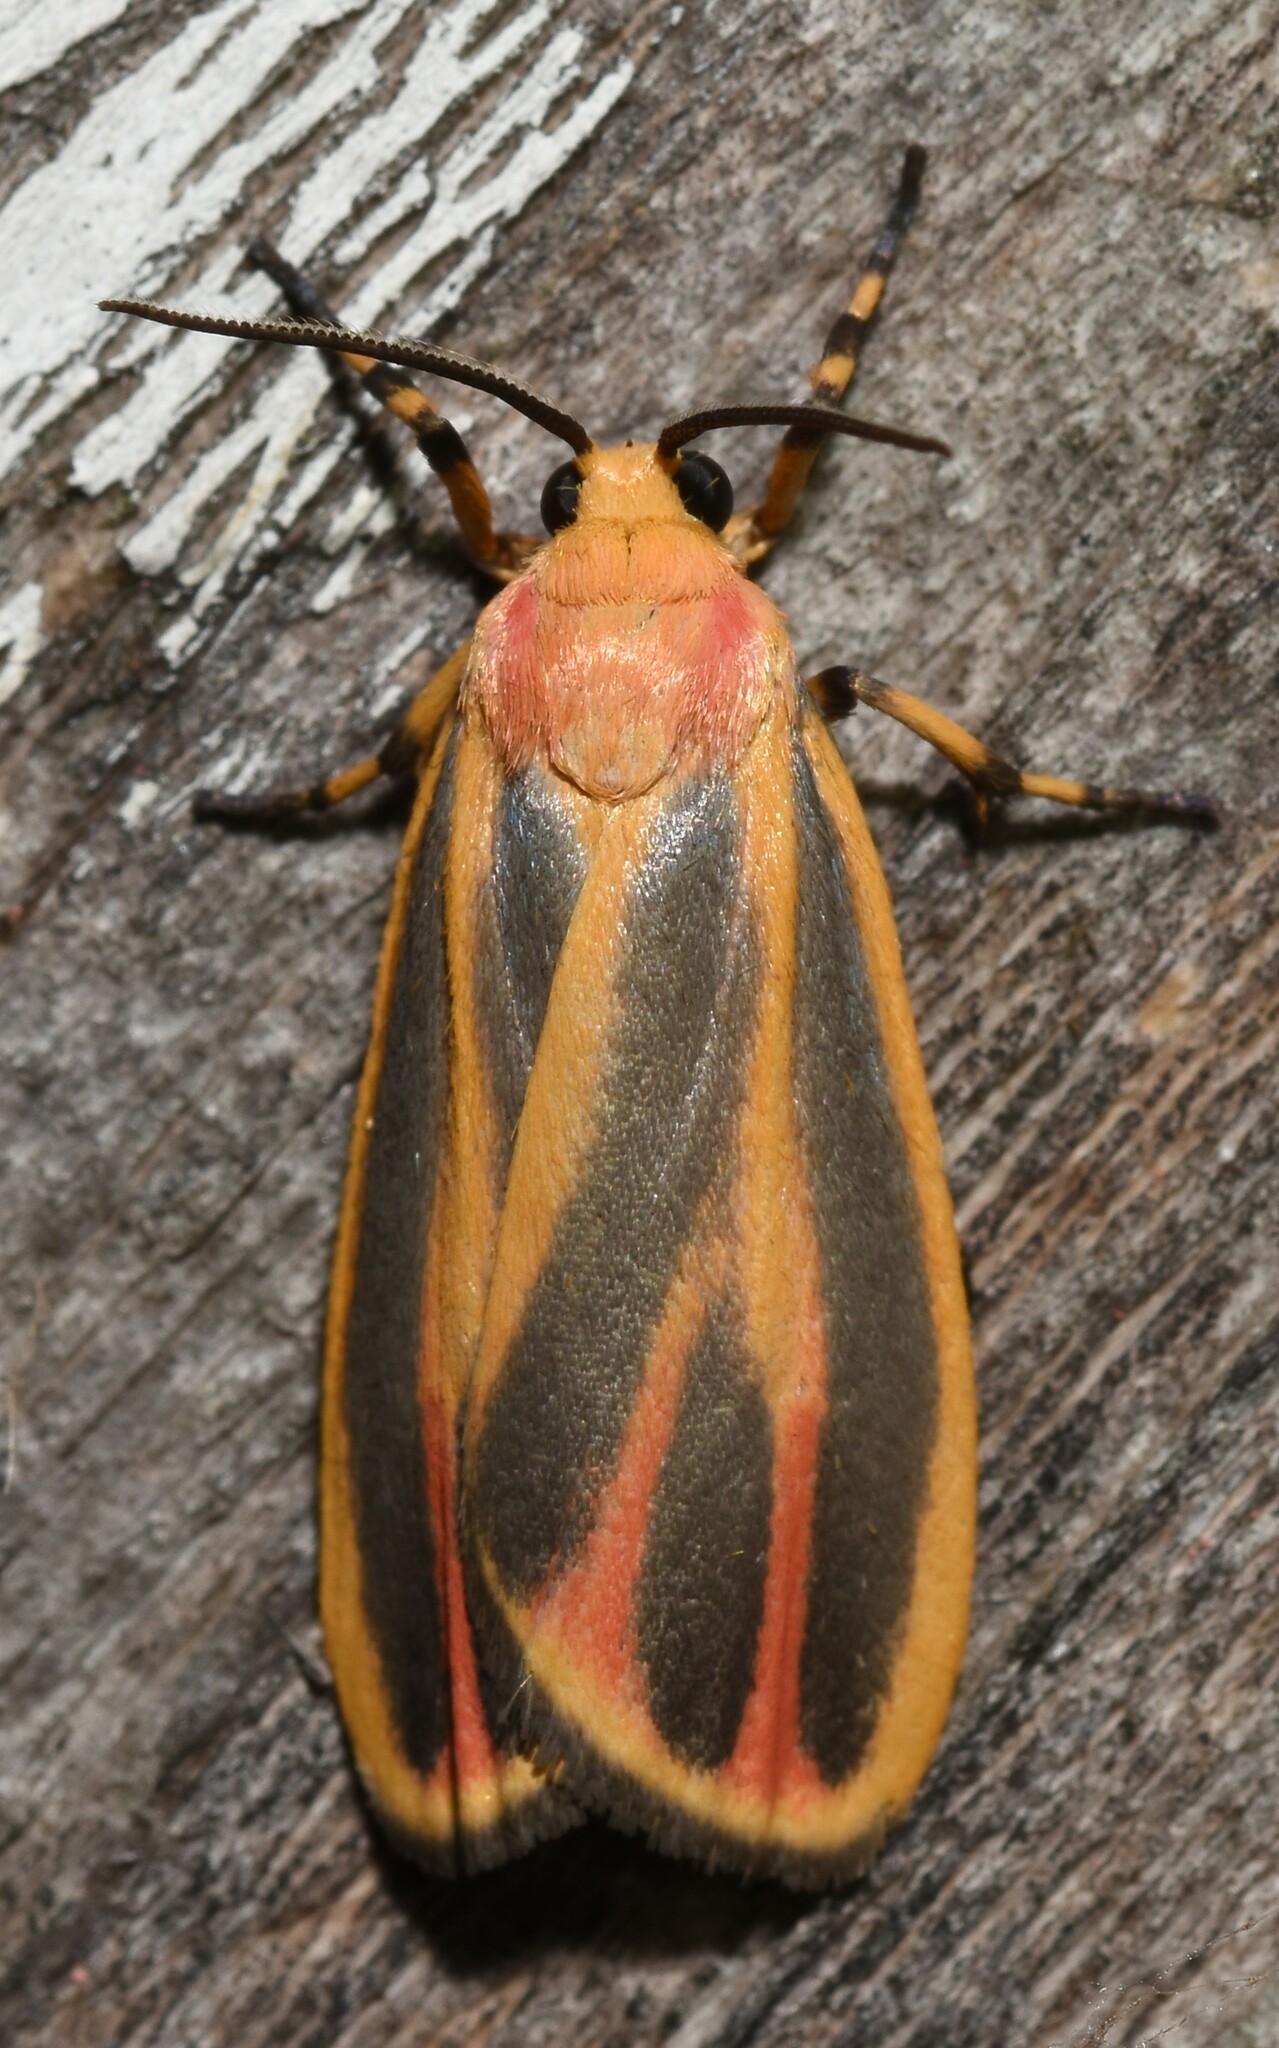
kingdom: Animalia
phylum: Arthropoda
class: Insecta
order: Lepidoptera
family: Erebidae
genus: Hypoprepia
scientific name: Hypoprepia fucosa
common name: Painted lichen moth
